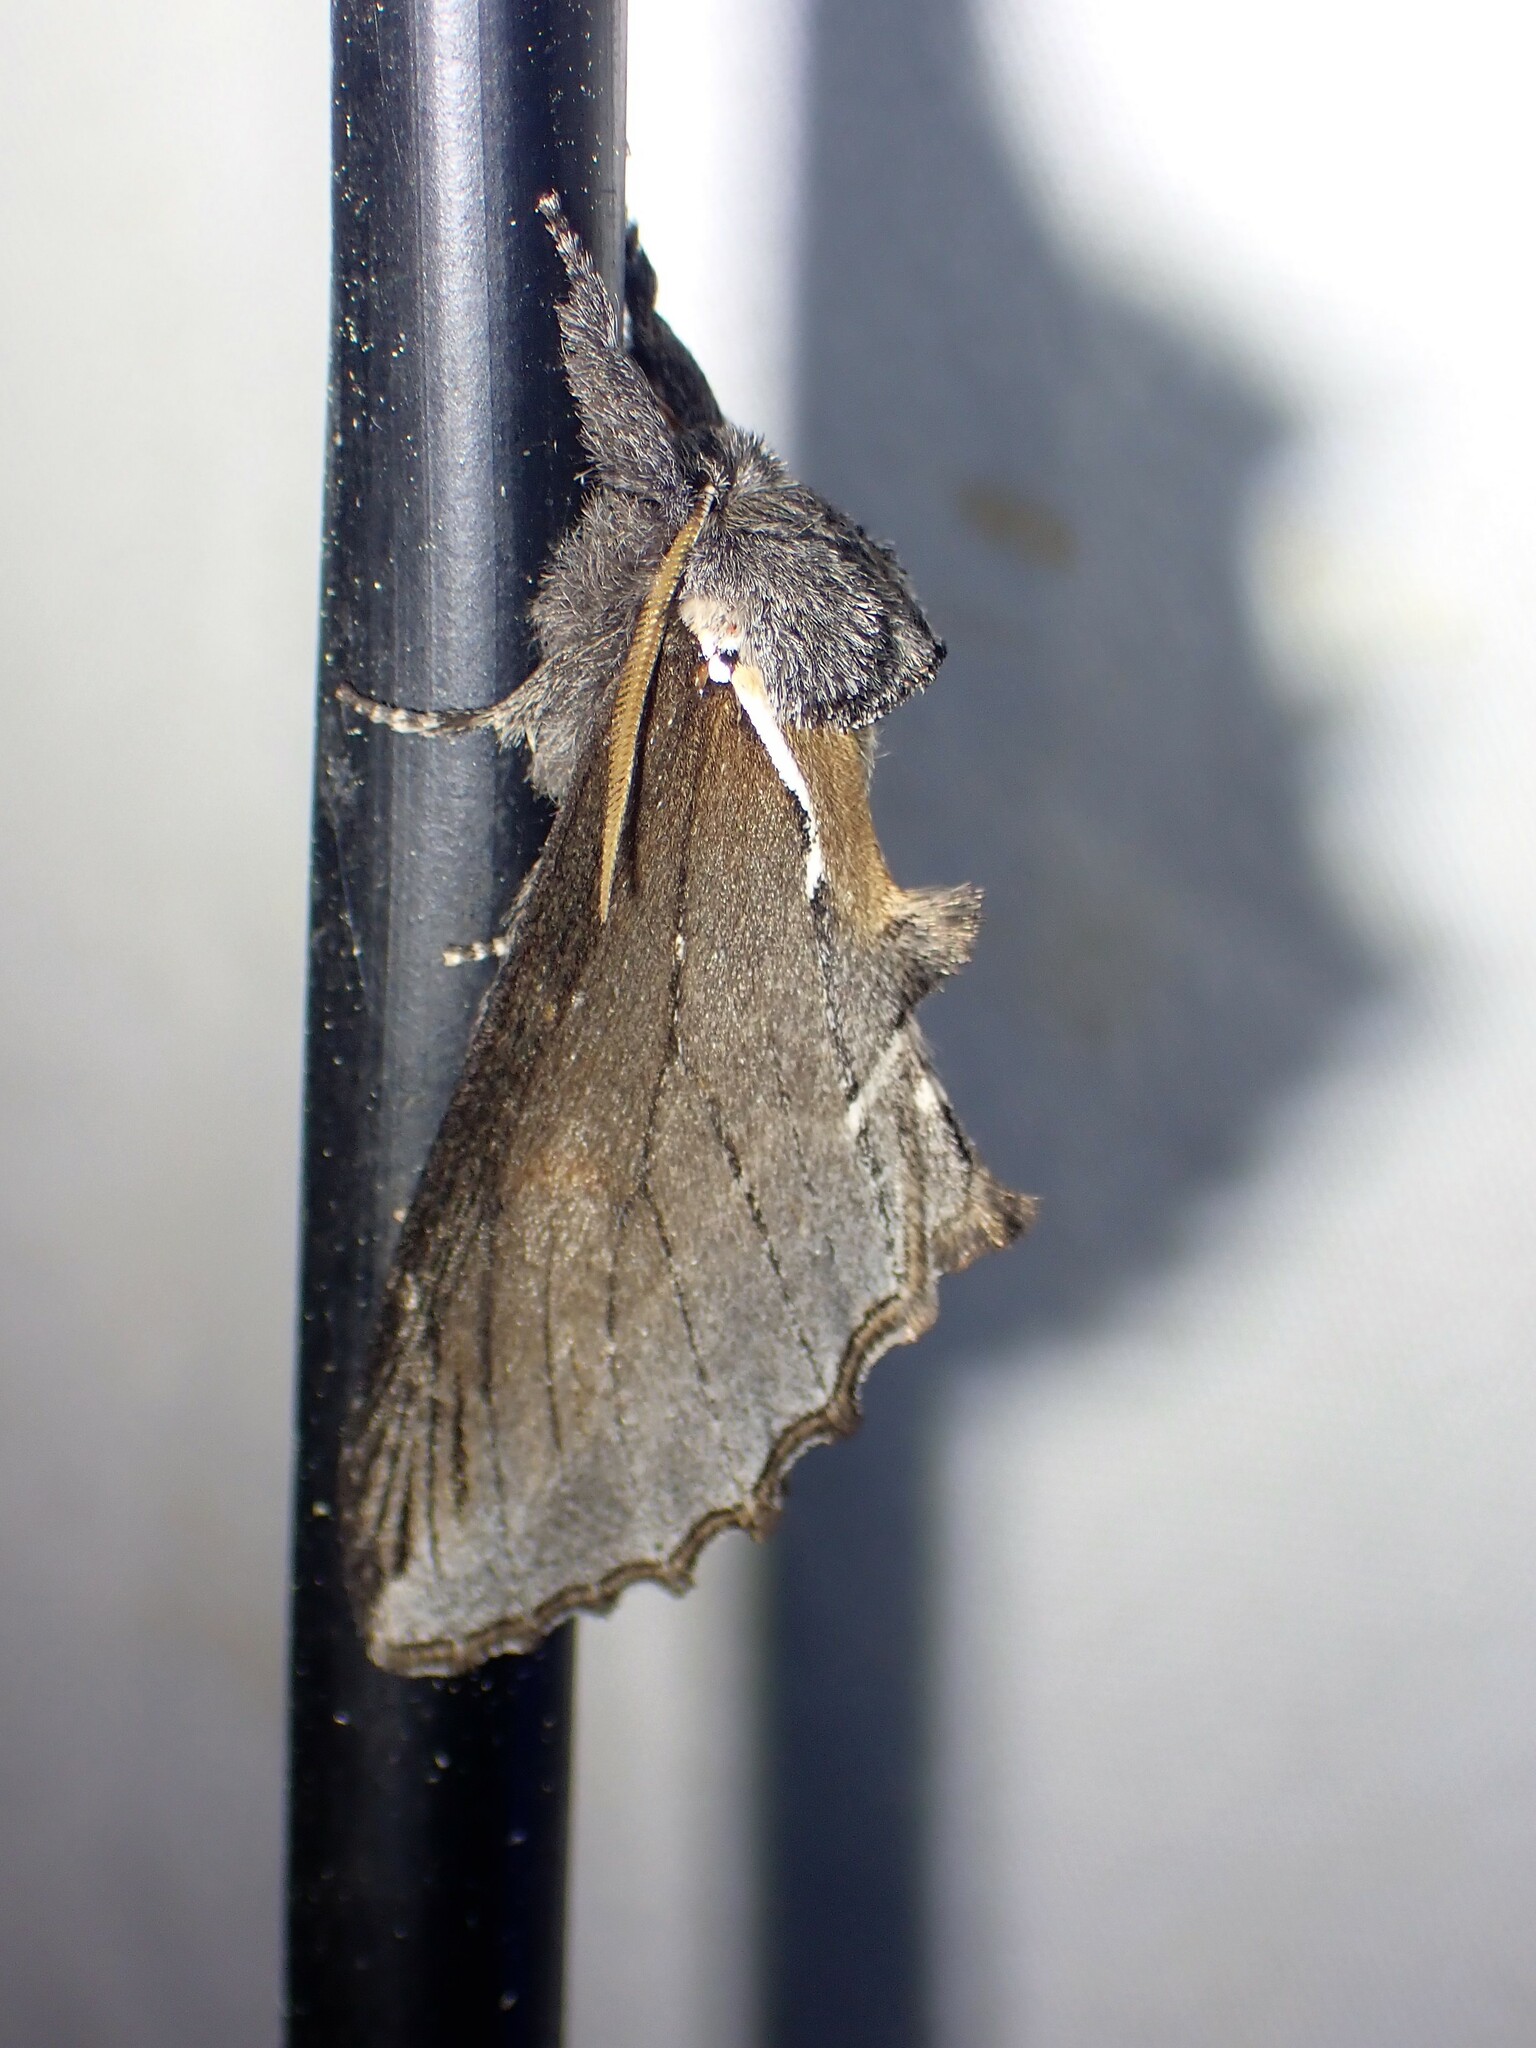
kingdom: Animalia
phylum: Arthropoda
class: Insecta
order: Lepidoptera
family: Notodontidae
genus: Pheosidea
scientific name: Pheosidea elegans
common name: Elegant prominent
